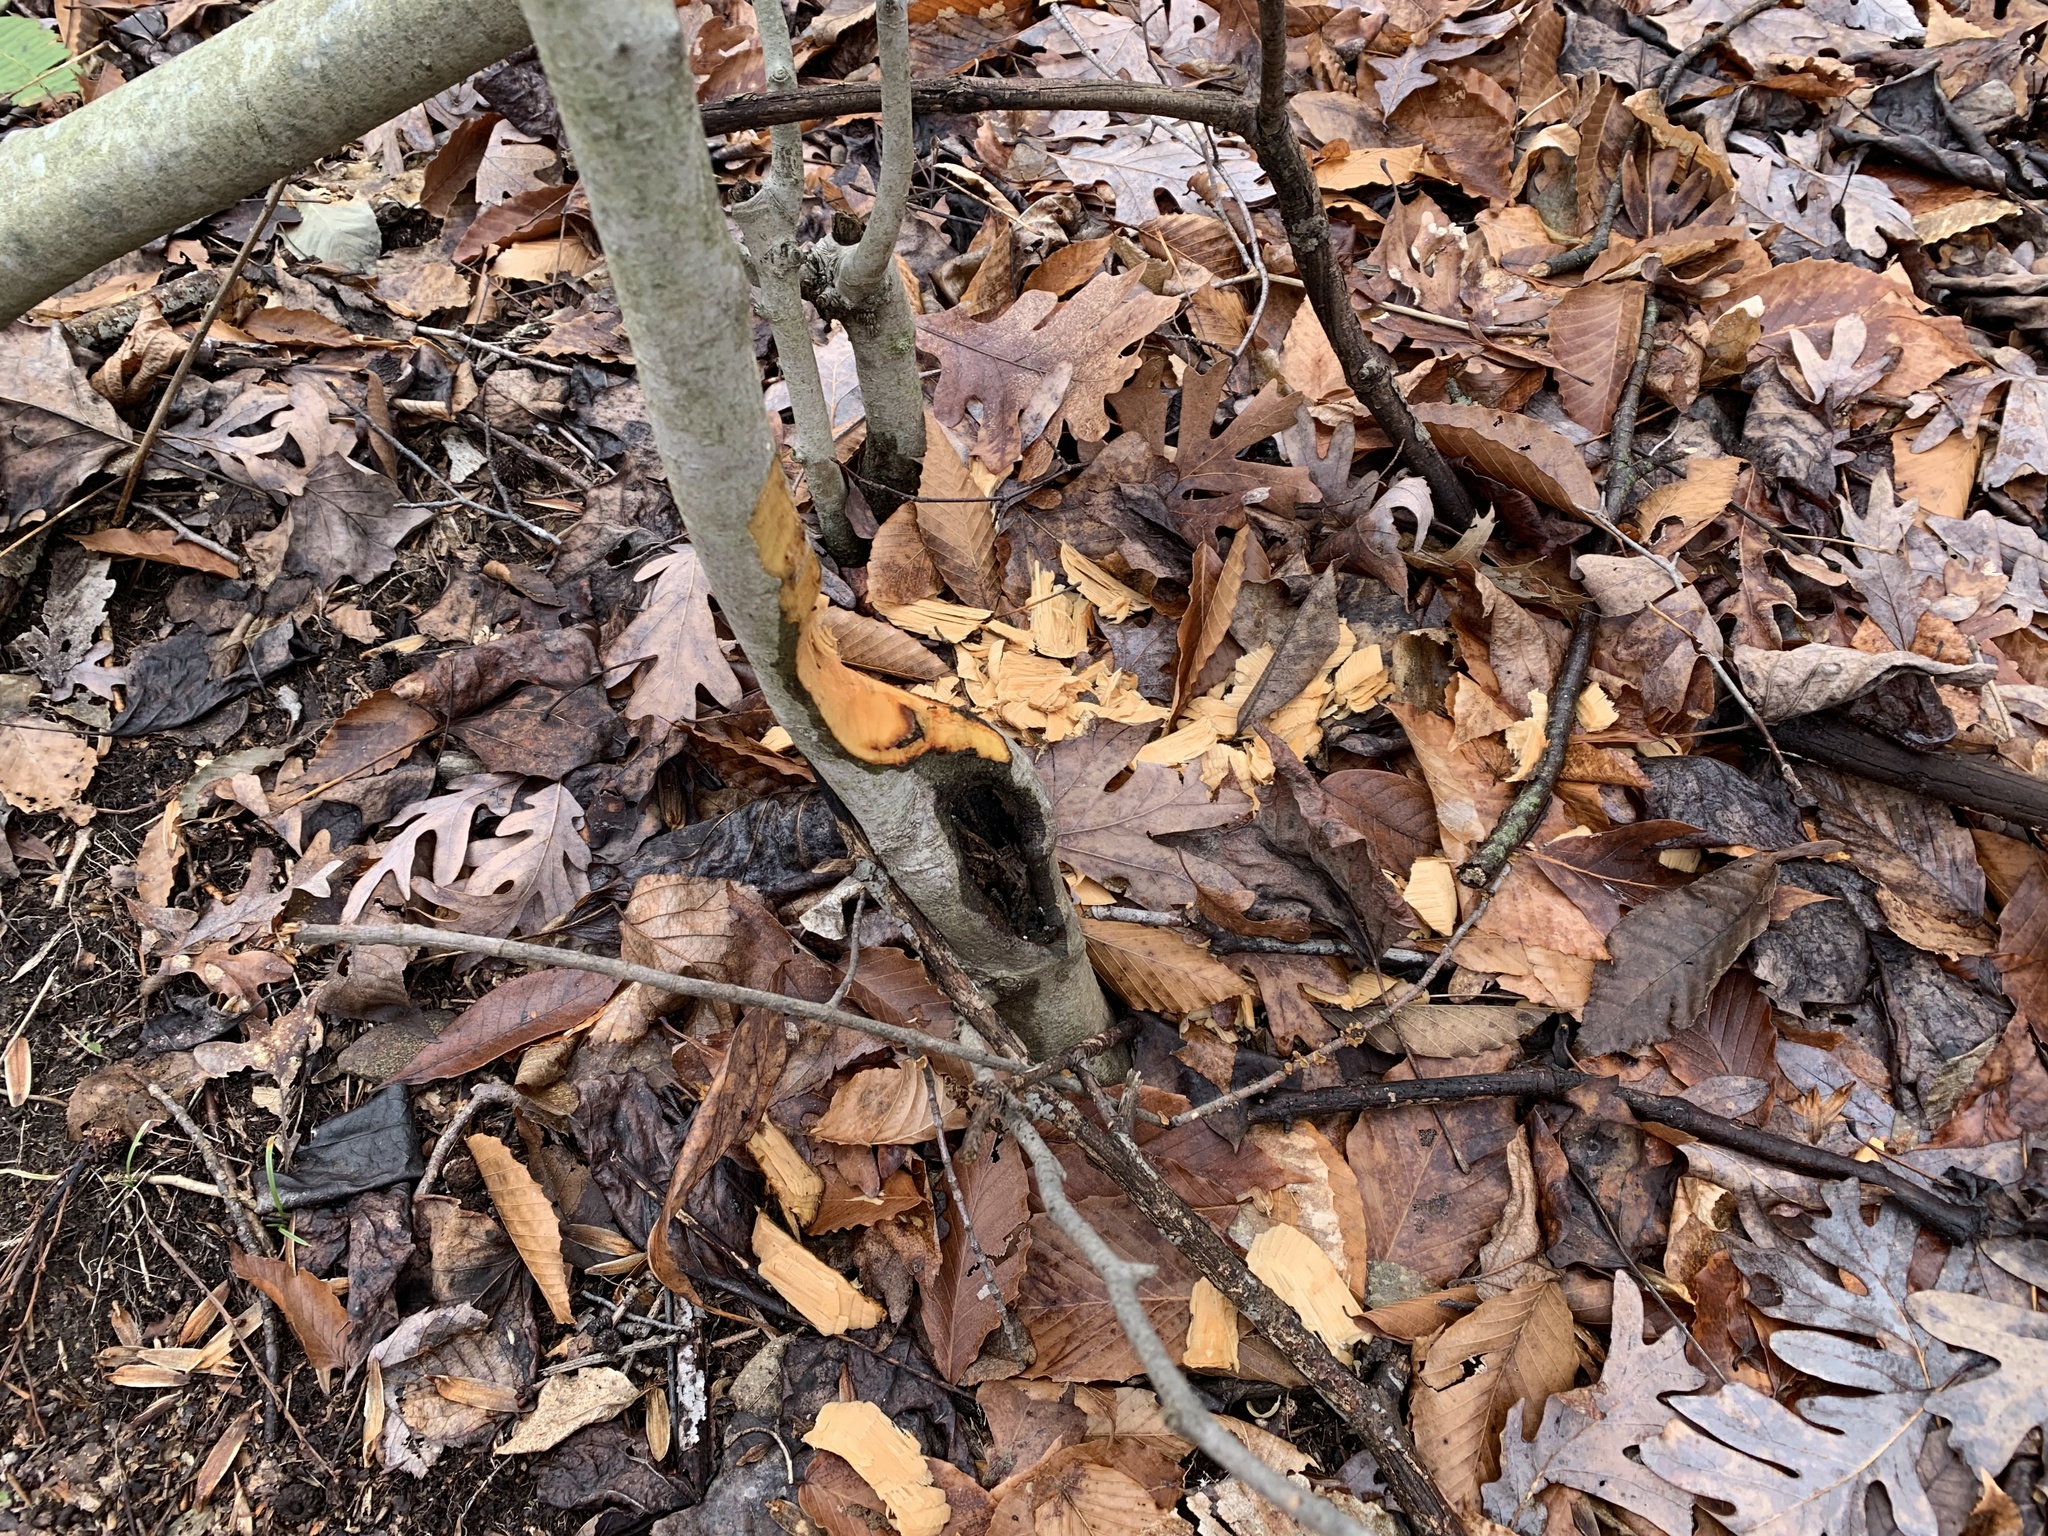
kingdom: Animalia
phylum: Chordata
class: Mammalia
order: Rodentia
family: Castoridae
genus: Castor
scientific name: Castor canadensis
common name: American beaver
